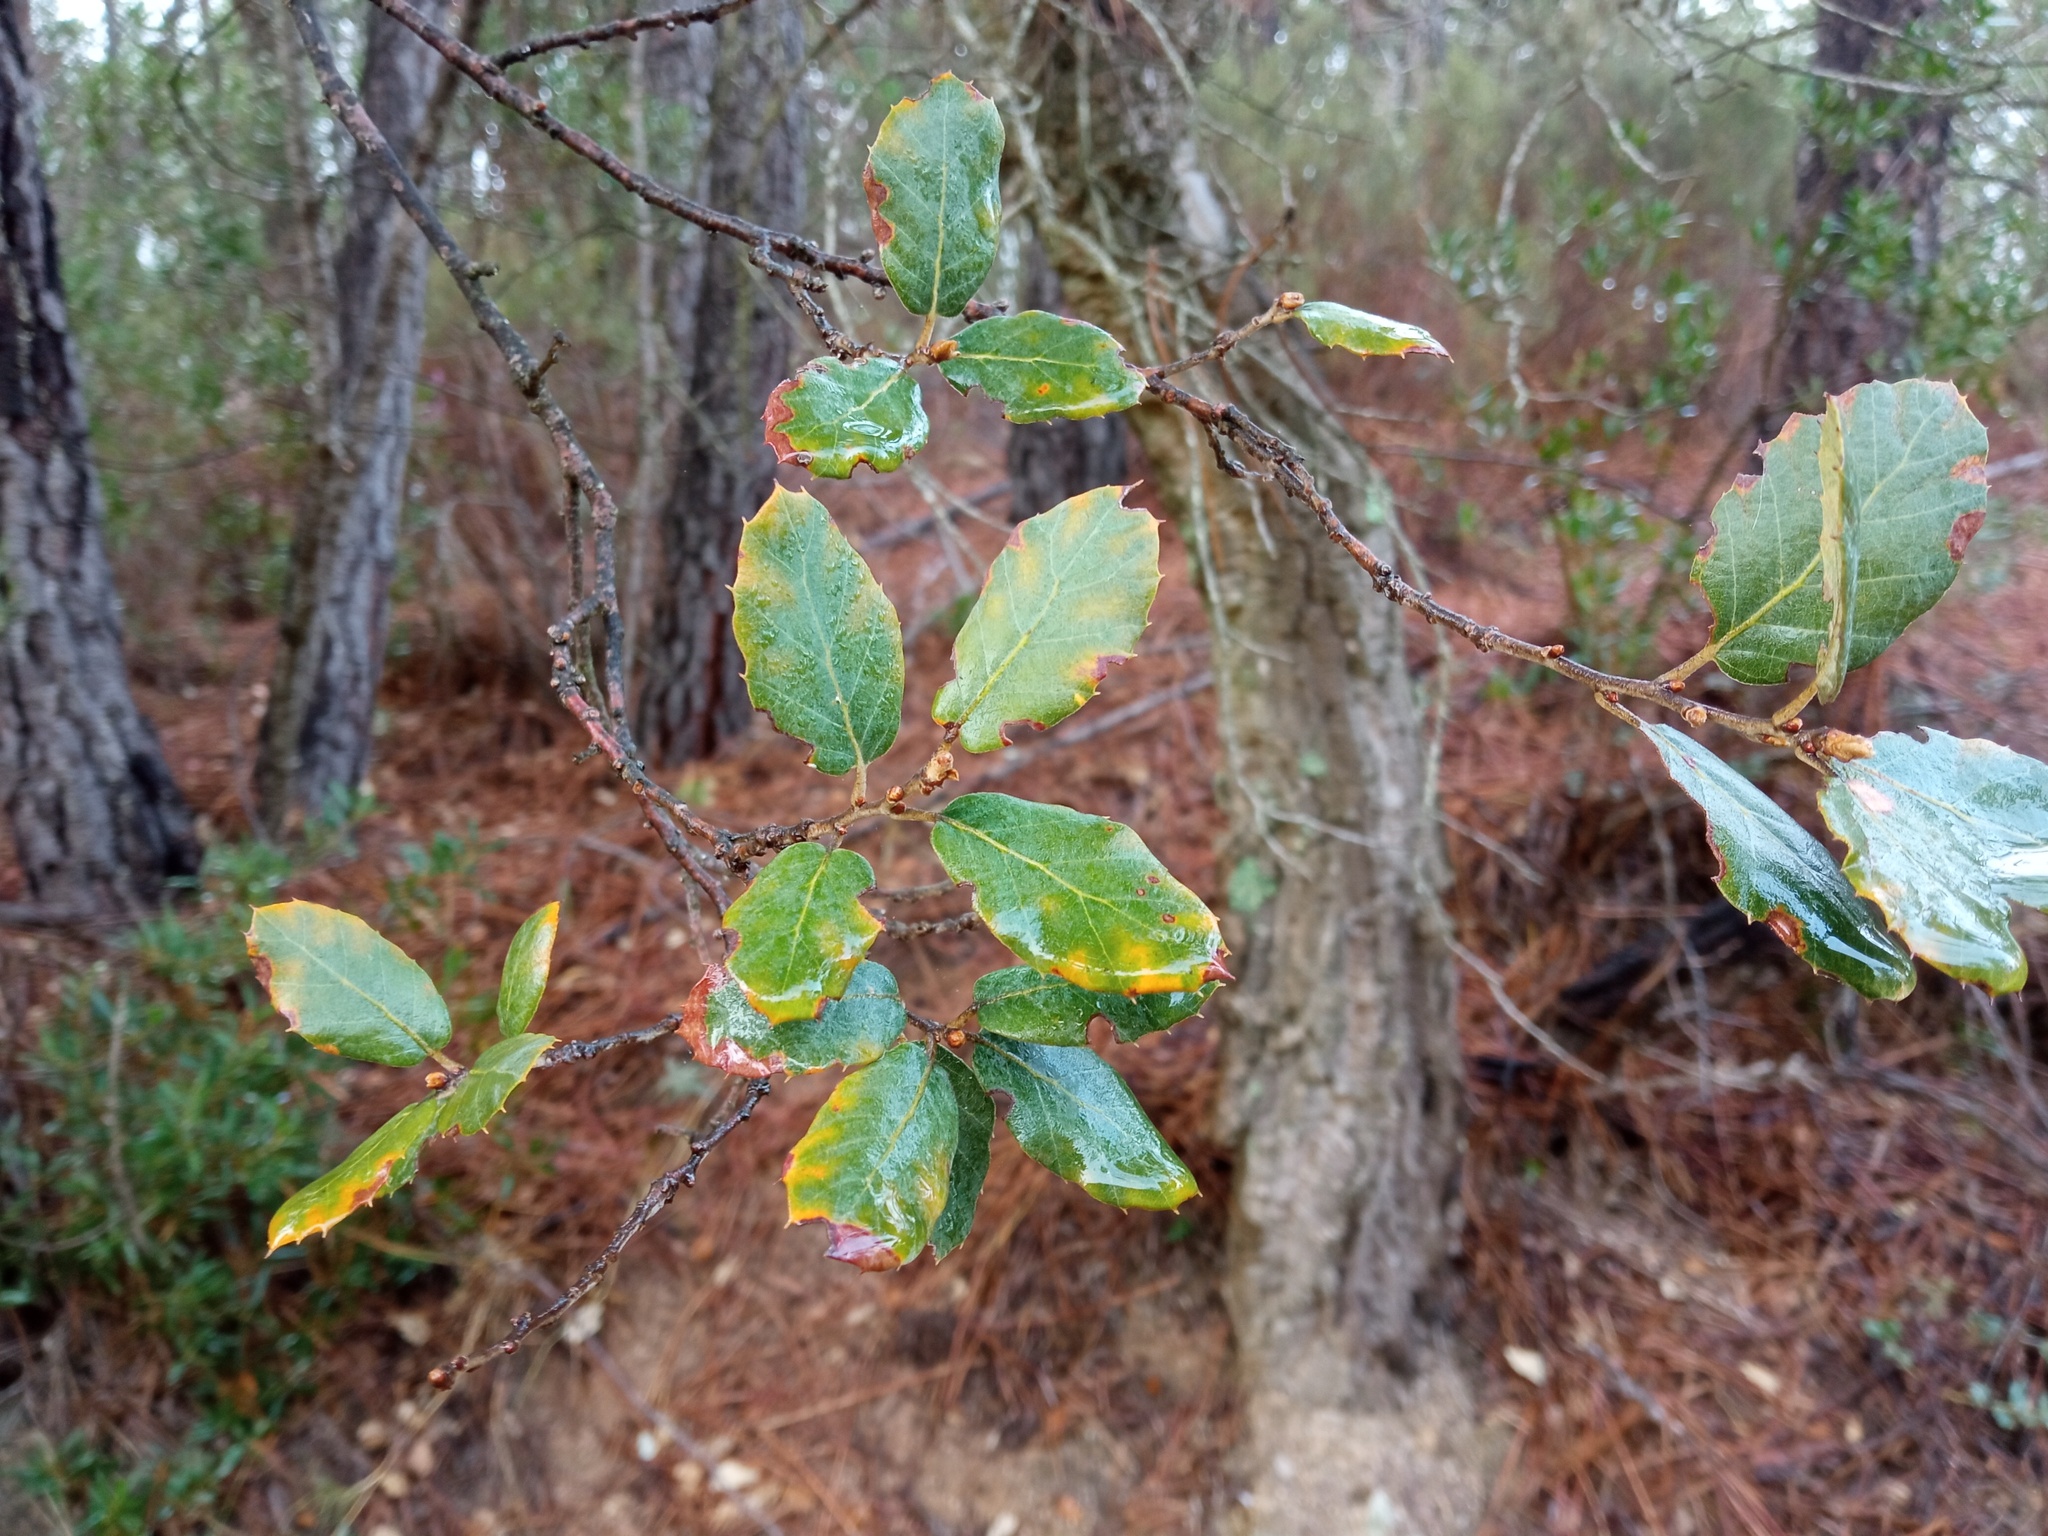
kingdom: Plantae
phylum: Tracheophyta
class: Magnoliopsida
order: Fagales
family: Fagaceae
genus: Quercus
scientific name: Quercus suber
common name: Cork oak
